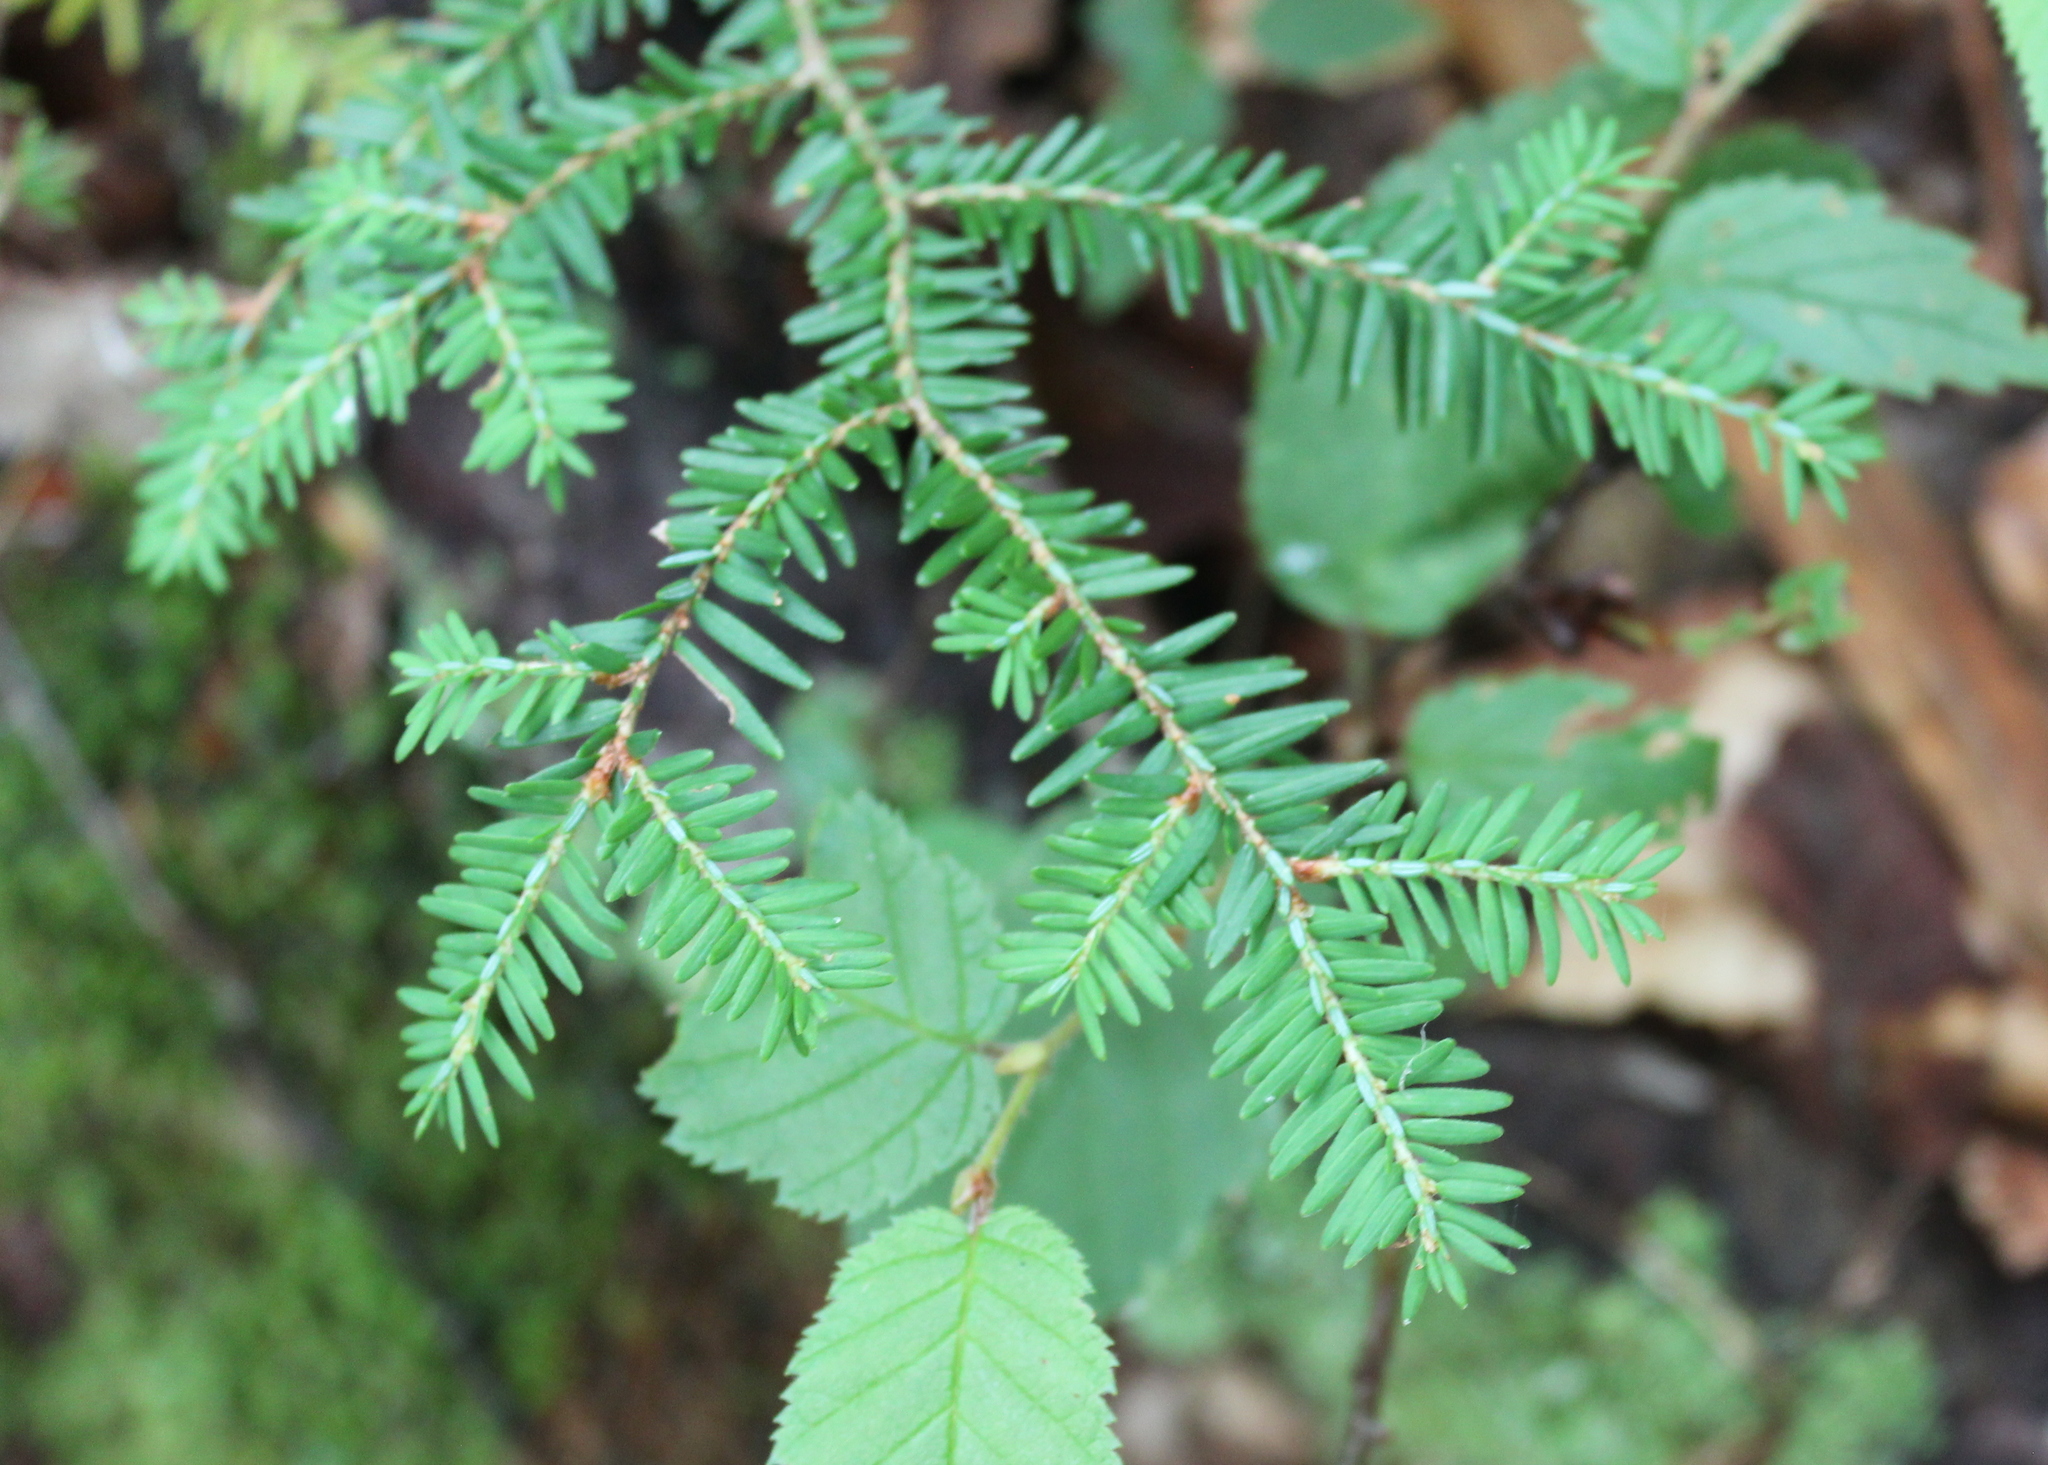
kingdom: Plantae
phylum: Tracheophyta
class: Pinopsida
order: Pinales
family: Pinaceae
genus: Tsuga
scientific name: Tsuga canadensis
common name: Eastern hemlock
